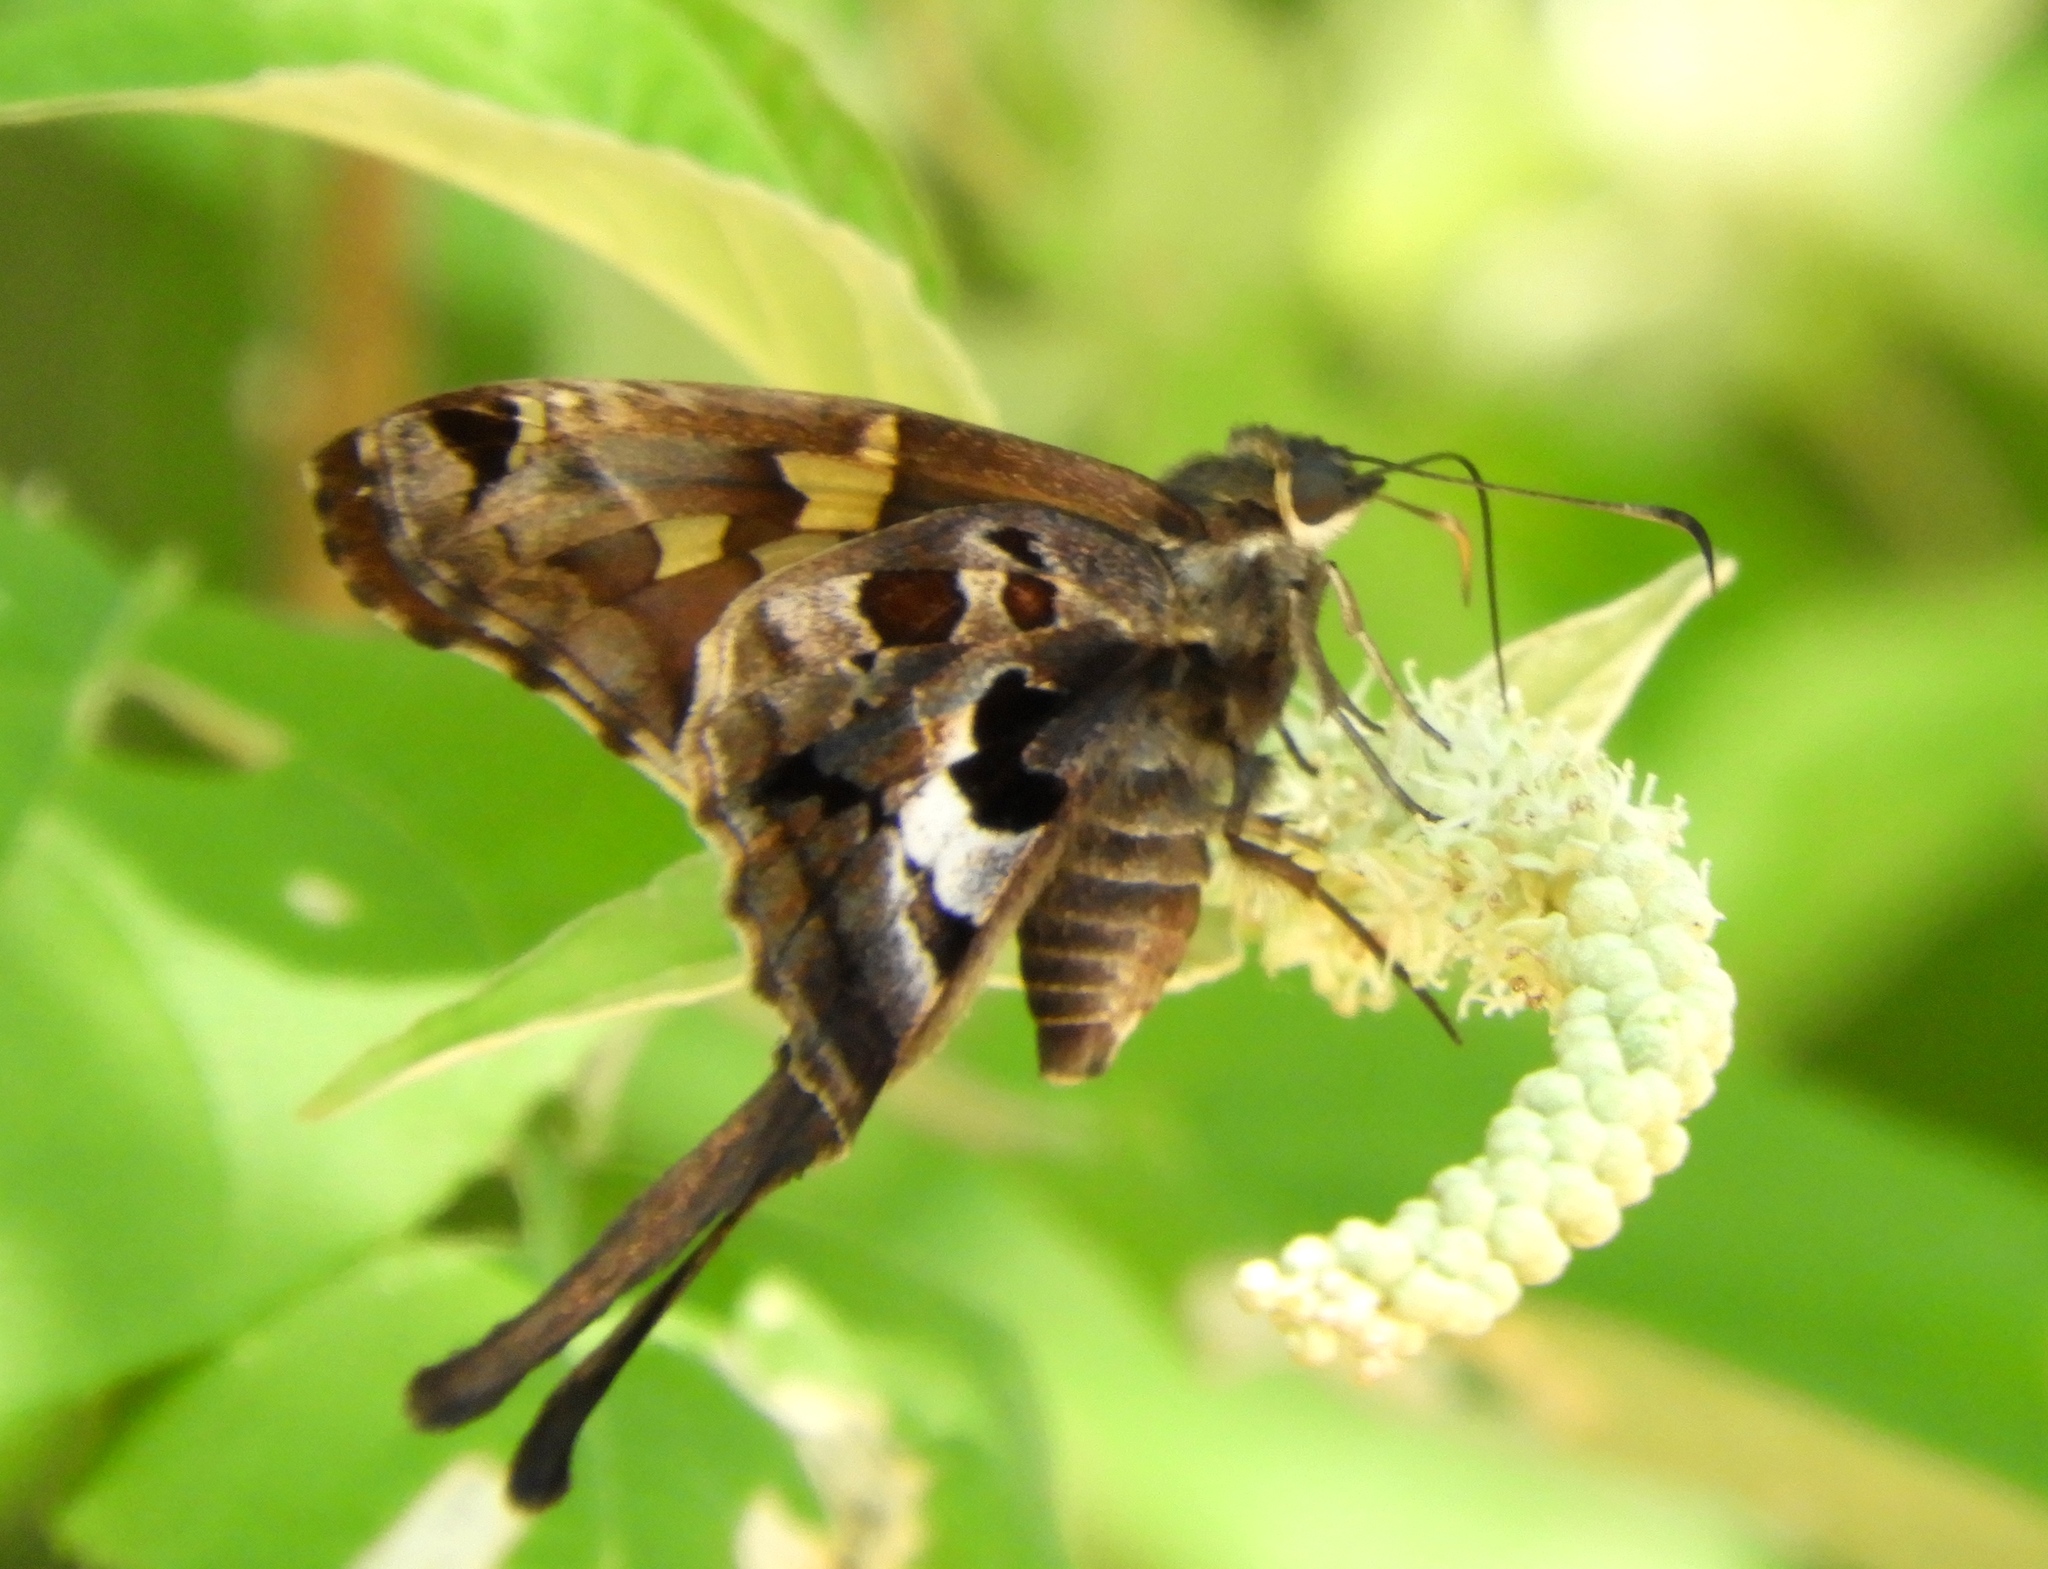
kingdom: Animalia
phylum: Arthropoda
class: Insecta
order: Lepidoptera
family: Hesperiidae
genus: Chioides
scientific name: Chioides zilpa
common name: Zilpa longtail
